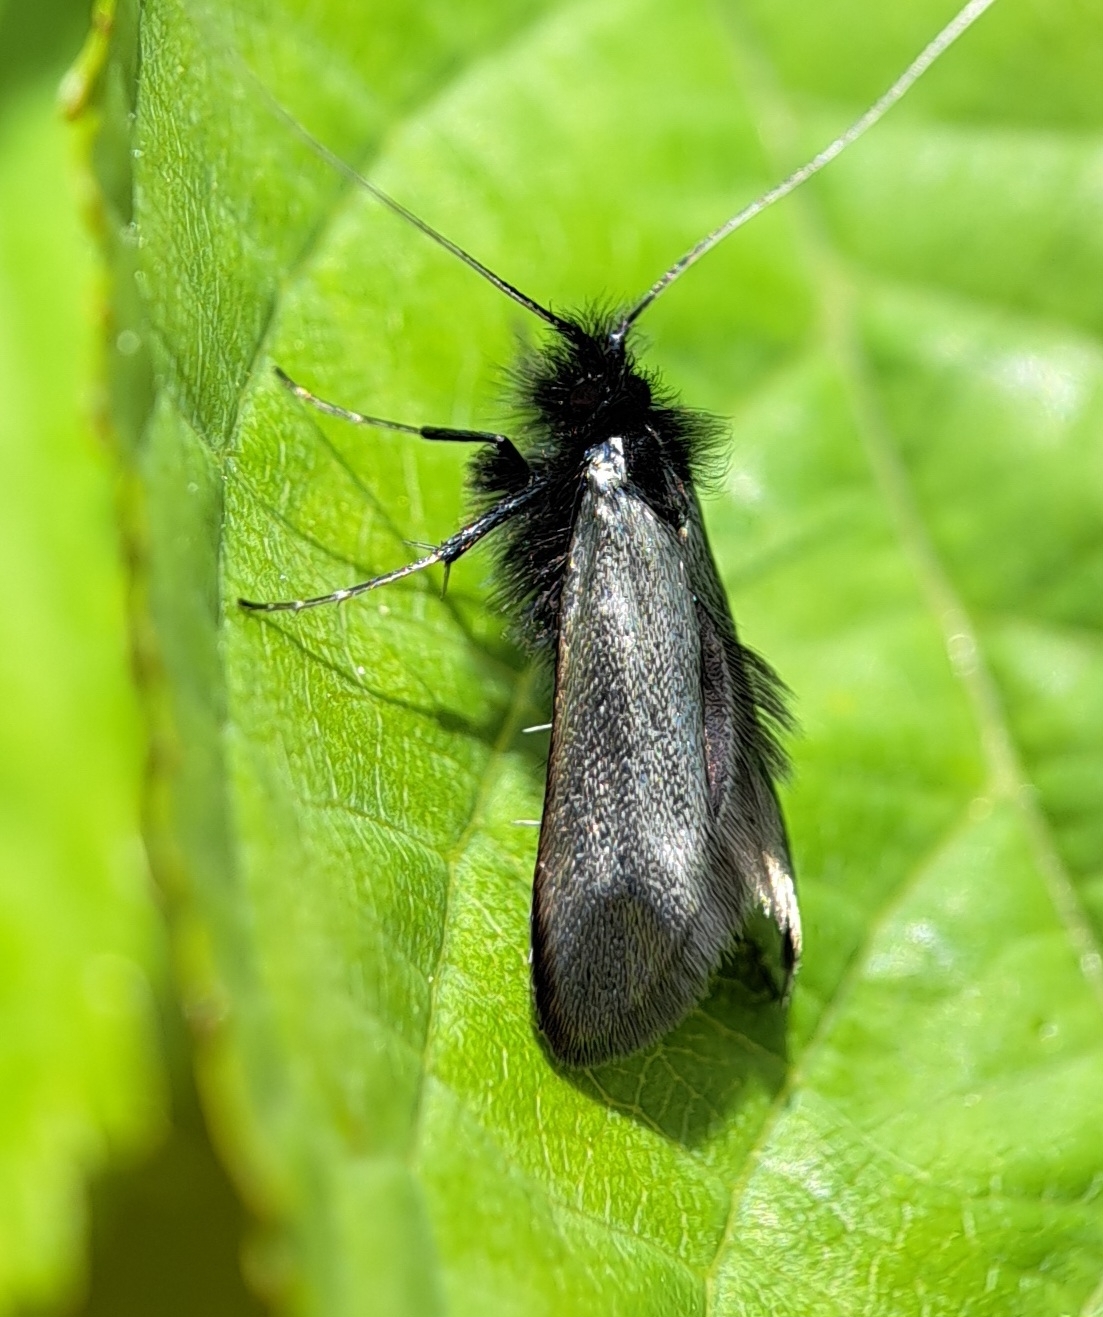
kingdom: Animalia
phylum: Arthropoda
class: Insecta
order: Lepidoptera
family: Adelidae
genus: Adela
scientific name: Adela viridella
